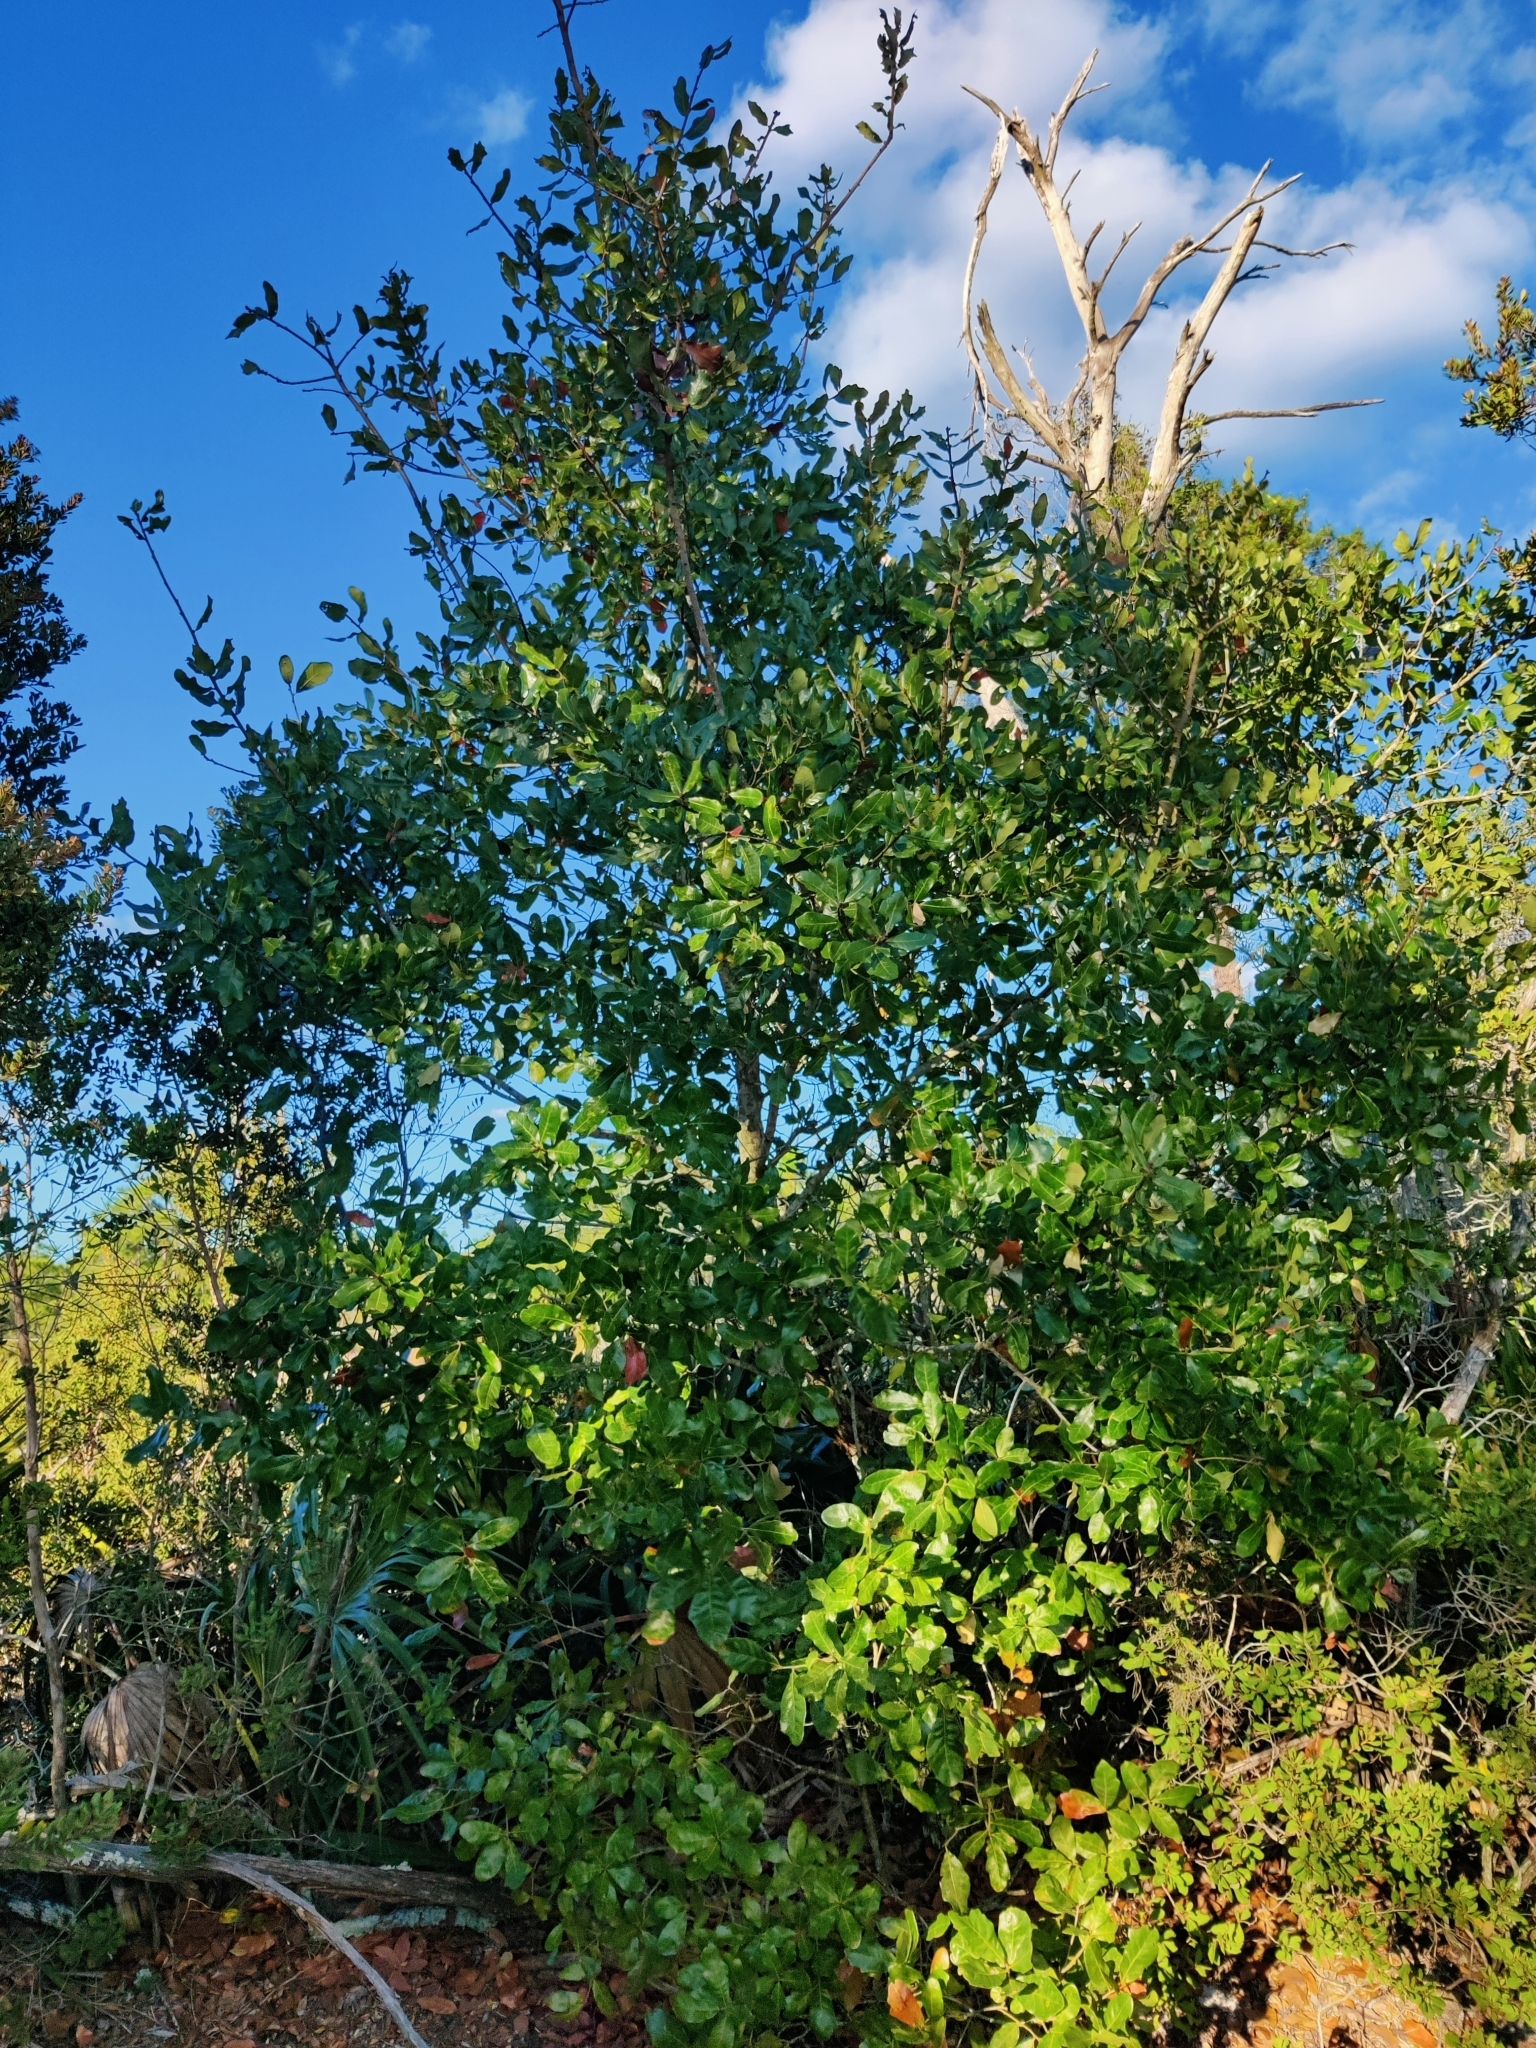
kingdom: Plantae
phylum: Tracheophyta
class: Magnoliopsida
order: Fagales
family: Fagaceae
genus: Quercus
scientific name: Quercus chapmanii
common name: Chapman oak
